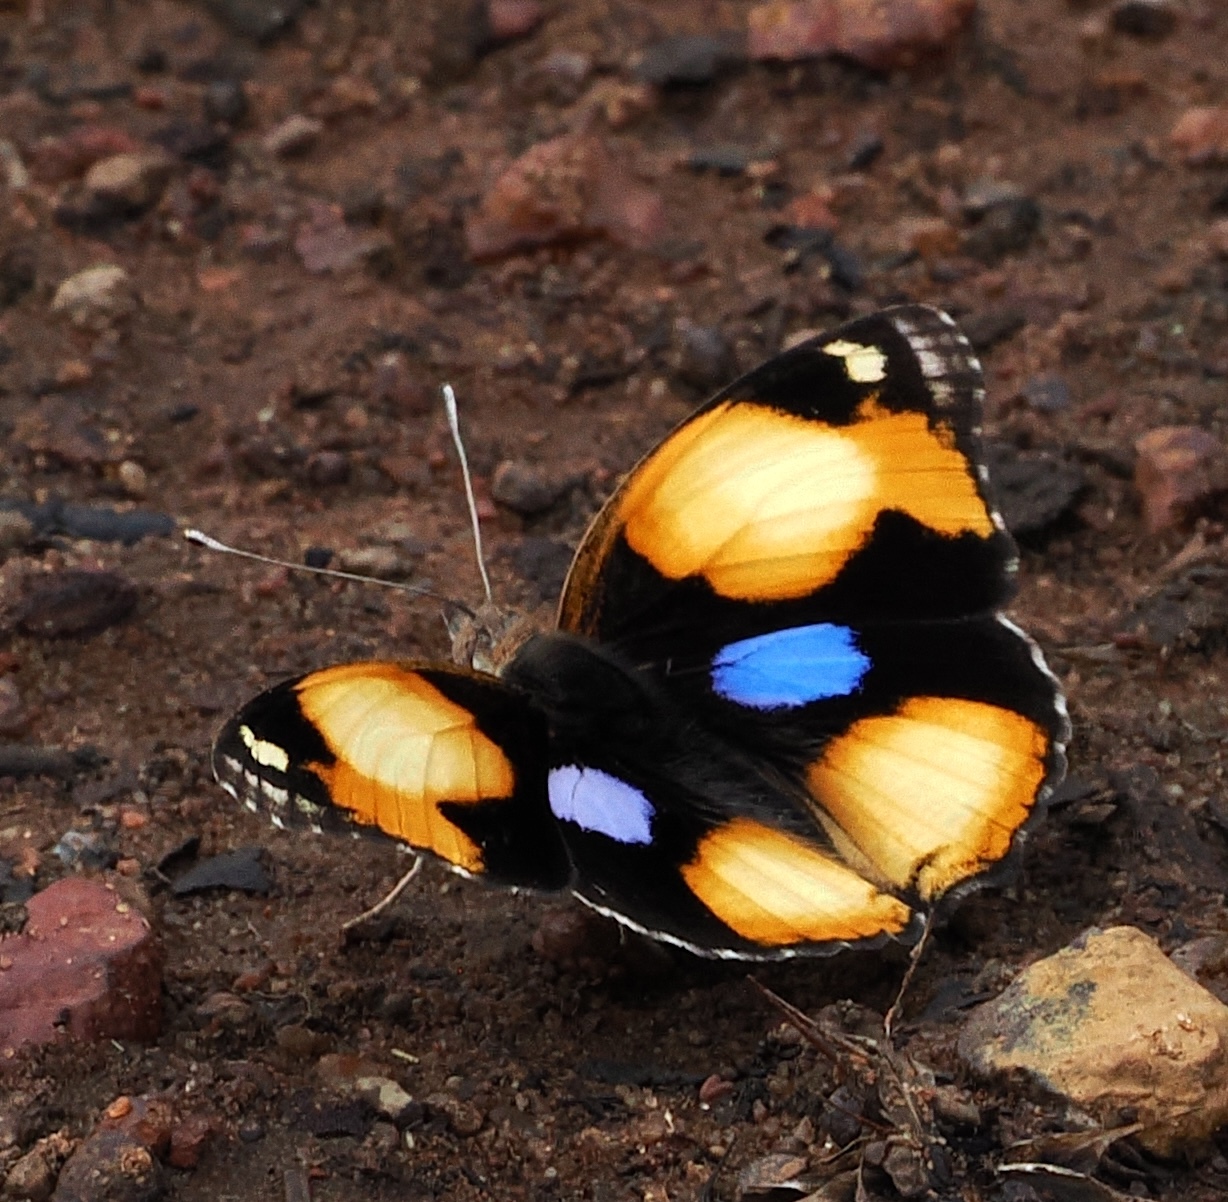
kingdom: Animalia
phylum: Arthropoda
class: Insecta
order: Lepidoptera
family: Nymphalidae
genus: Junonia
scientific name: Junonia hierta
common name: Yellow pansy
